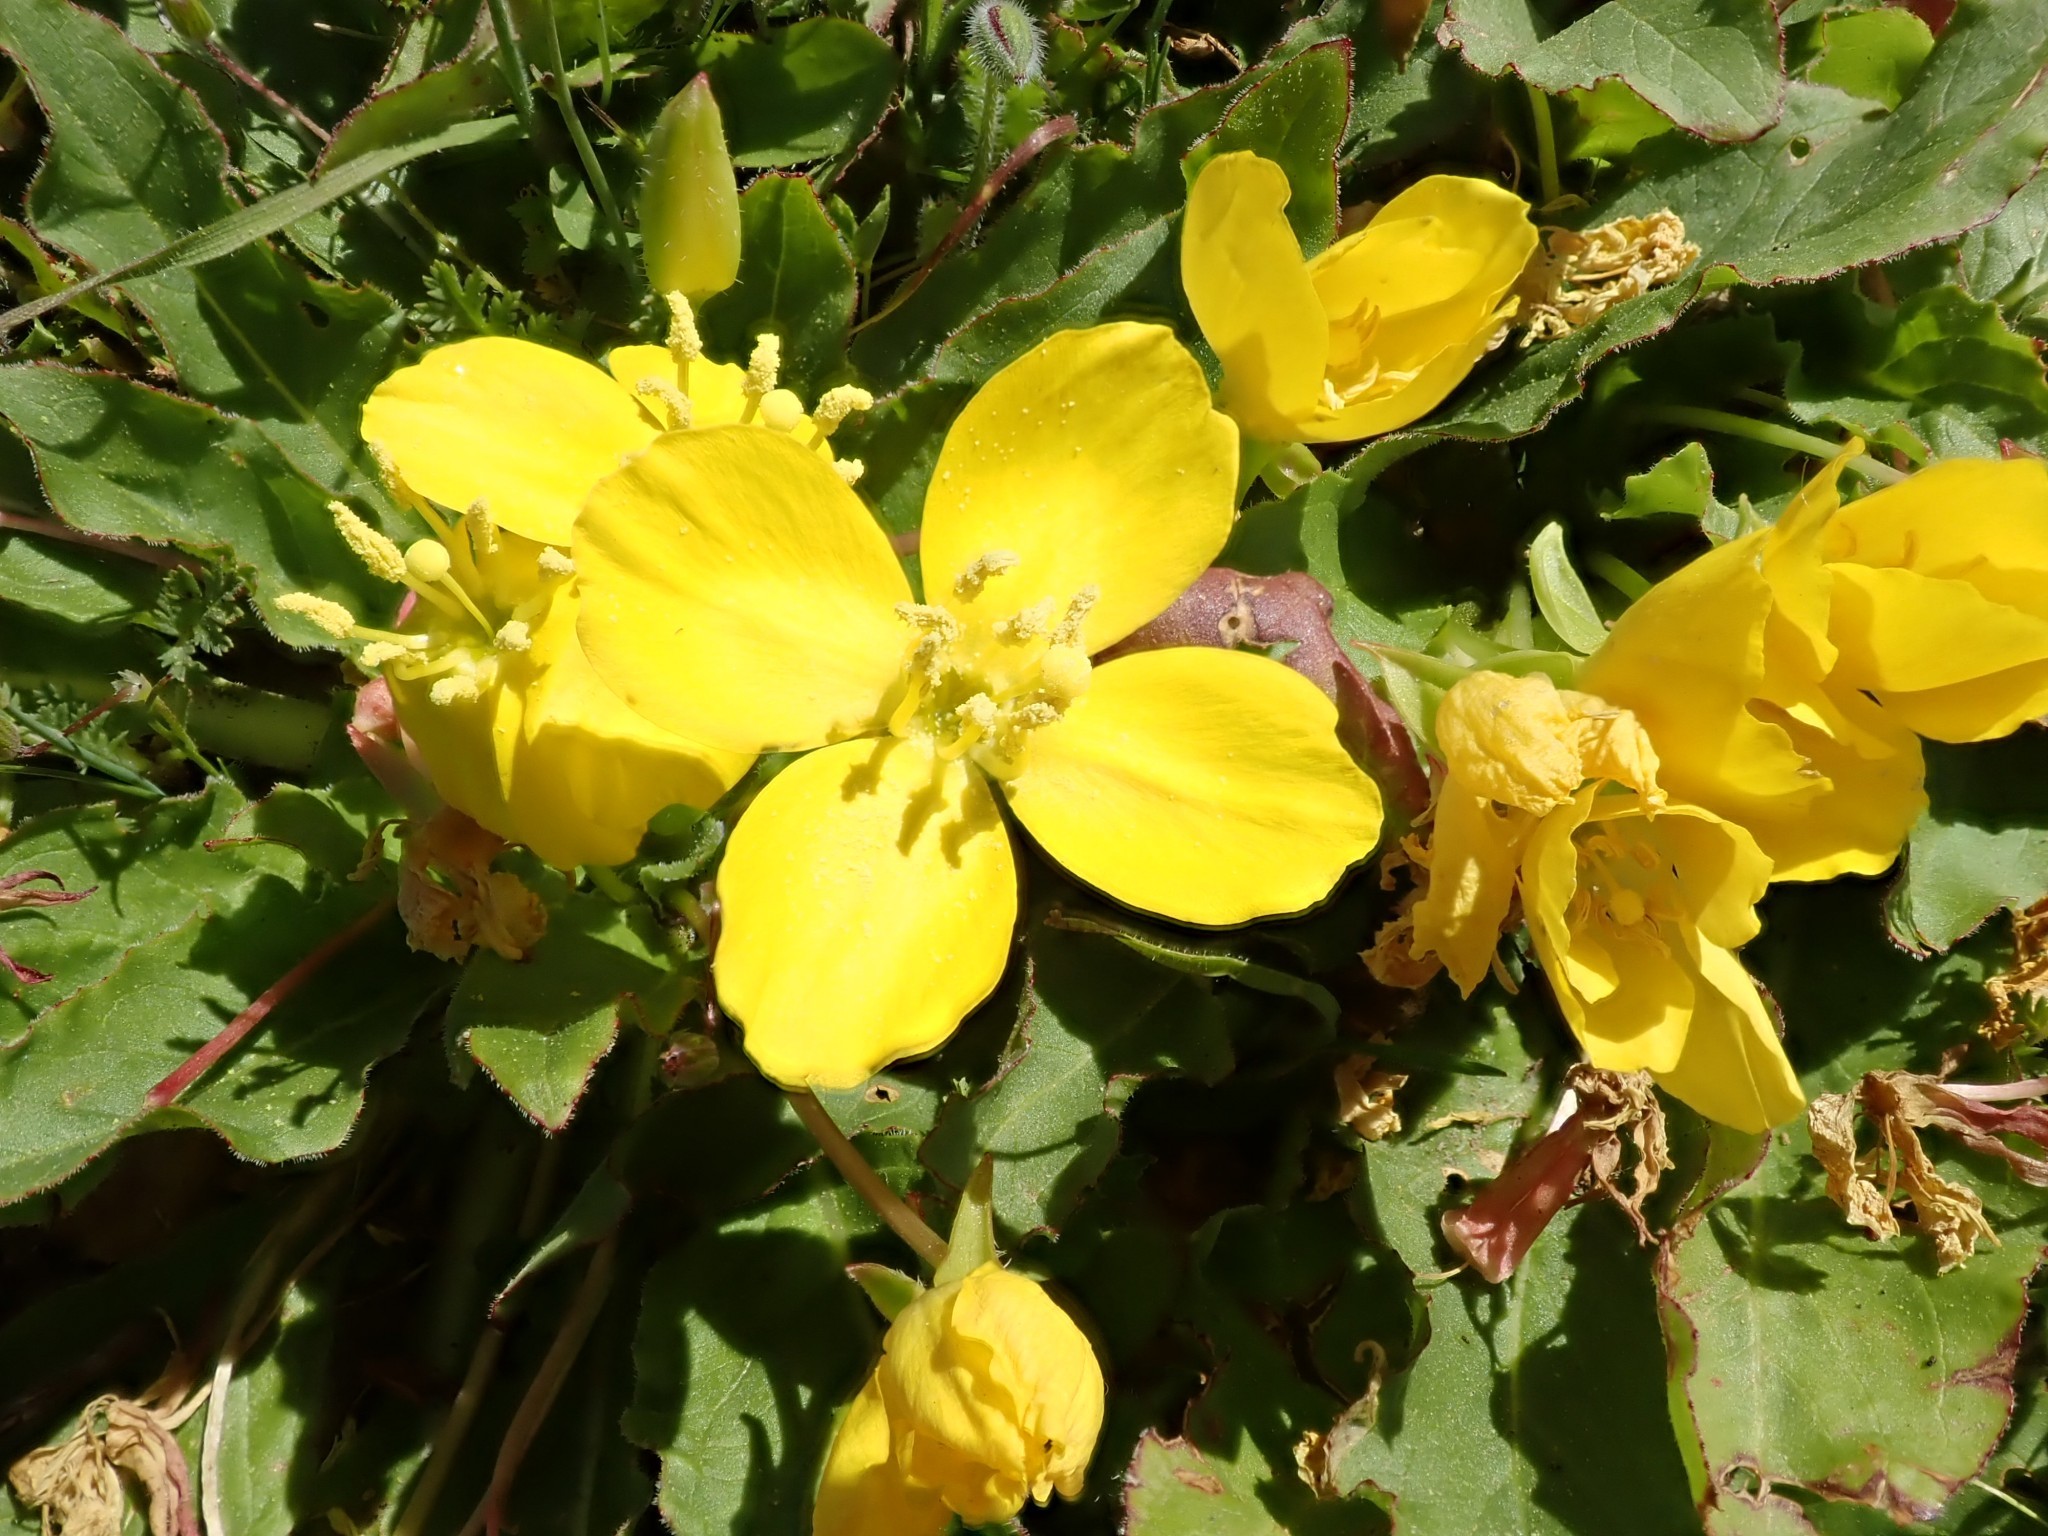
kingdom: Plantae
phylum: Tracheophyta
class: Magnoliopsida
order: Myrtales
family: Onagraceae
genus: Taraxia
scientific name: Taraxia ovata
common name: Goldeneggs
